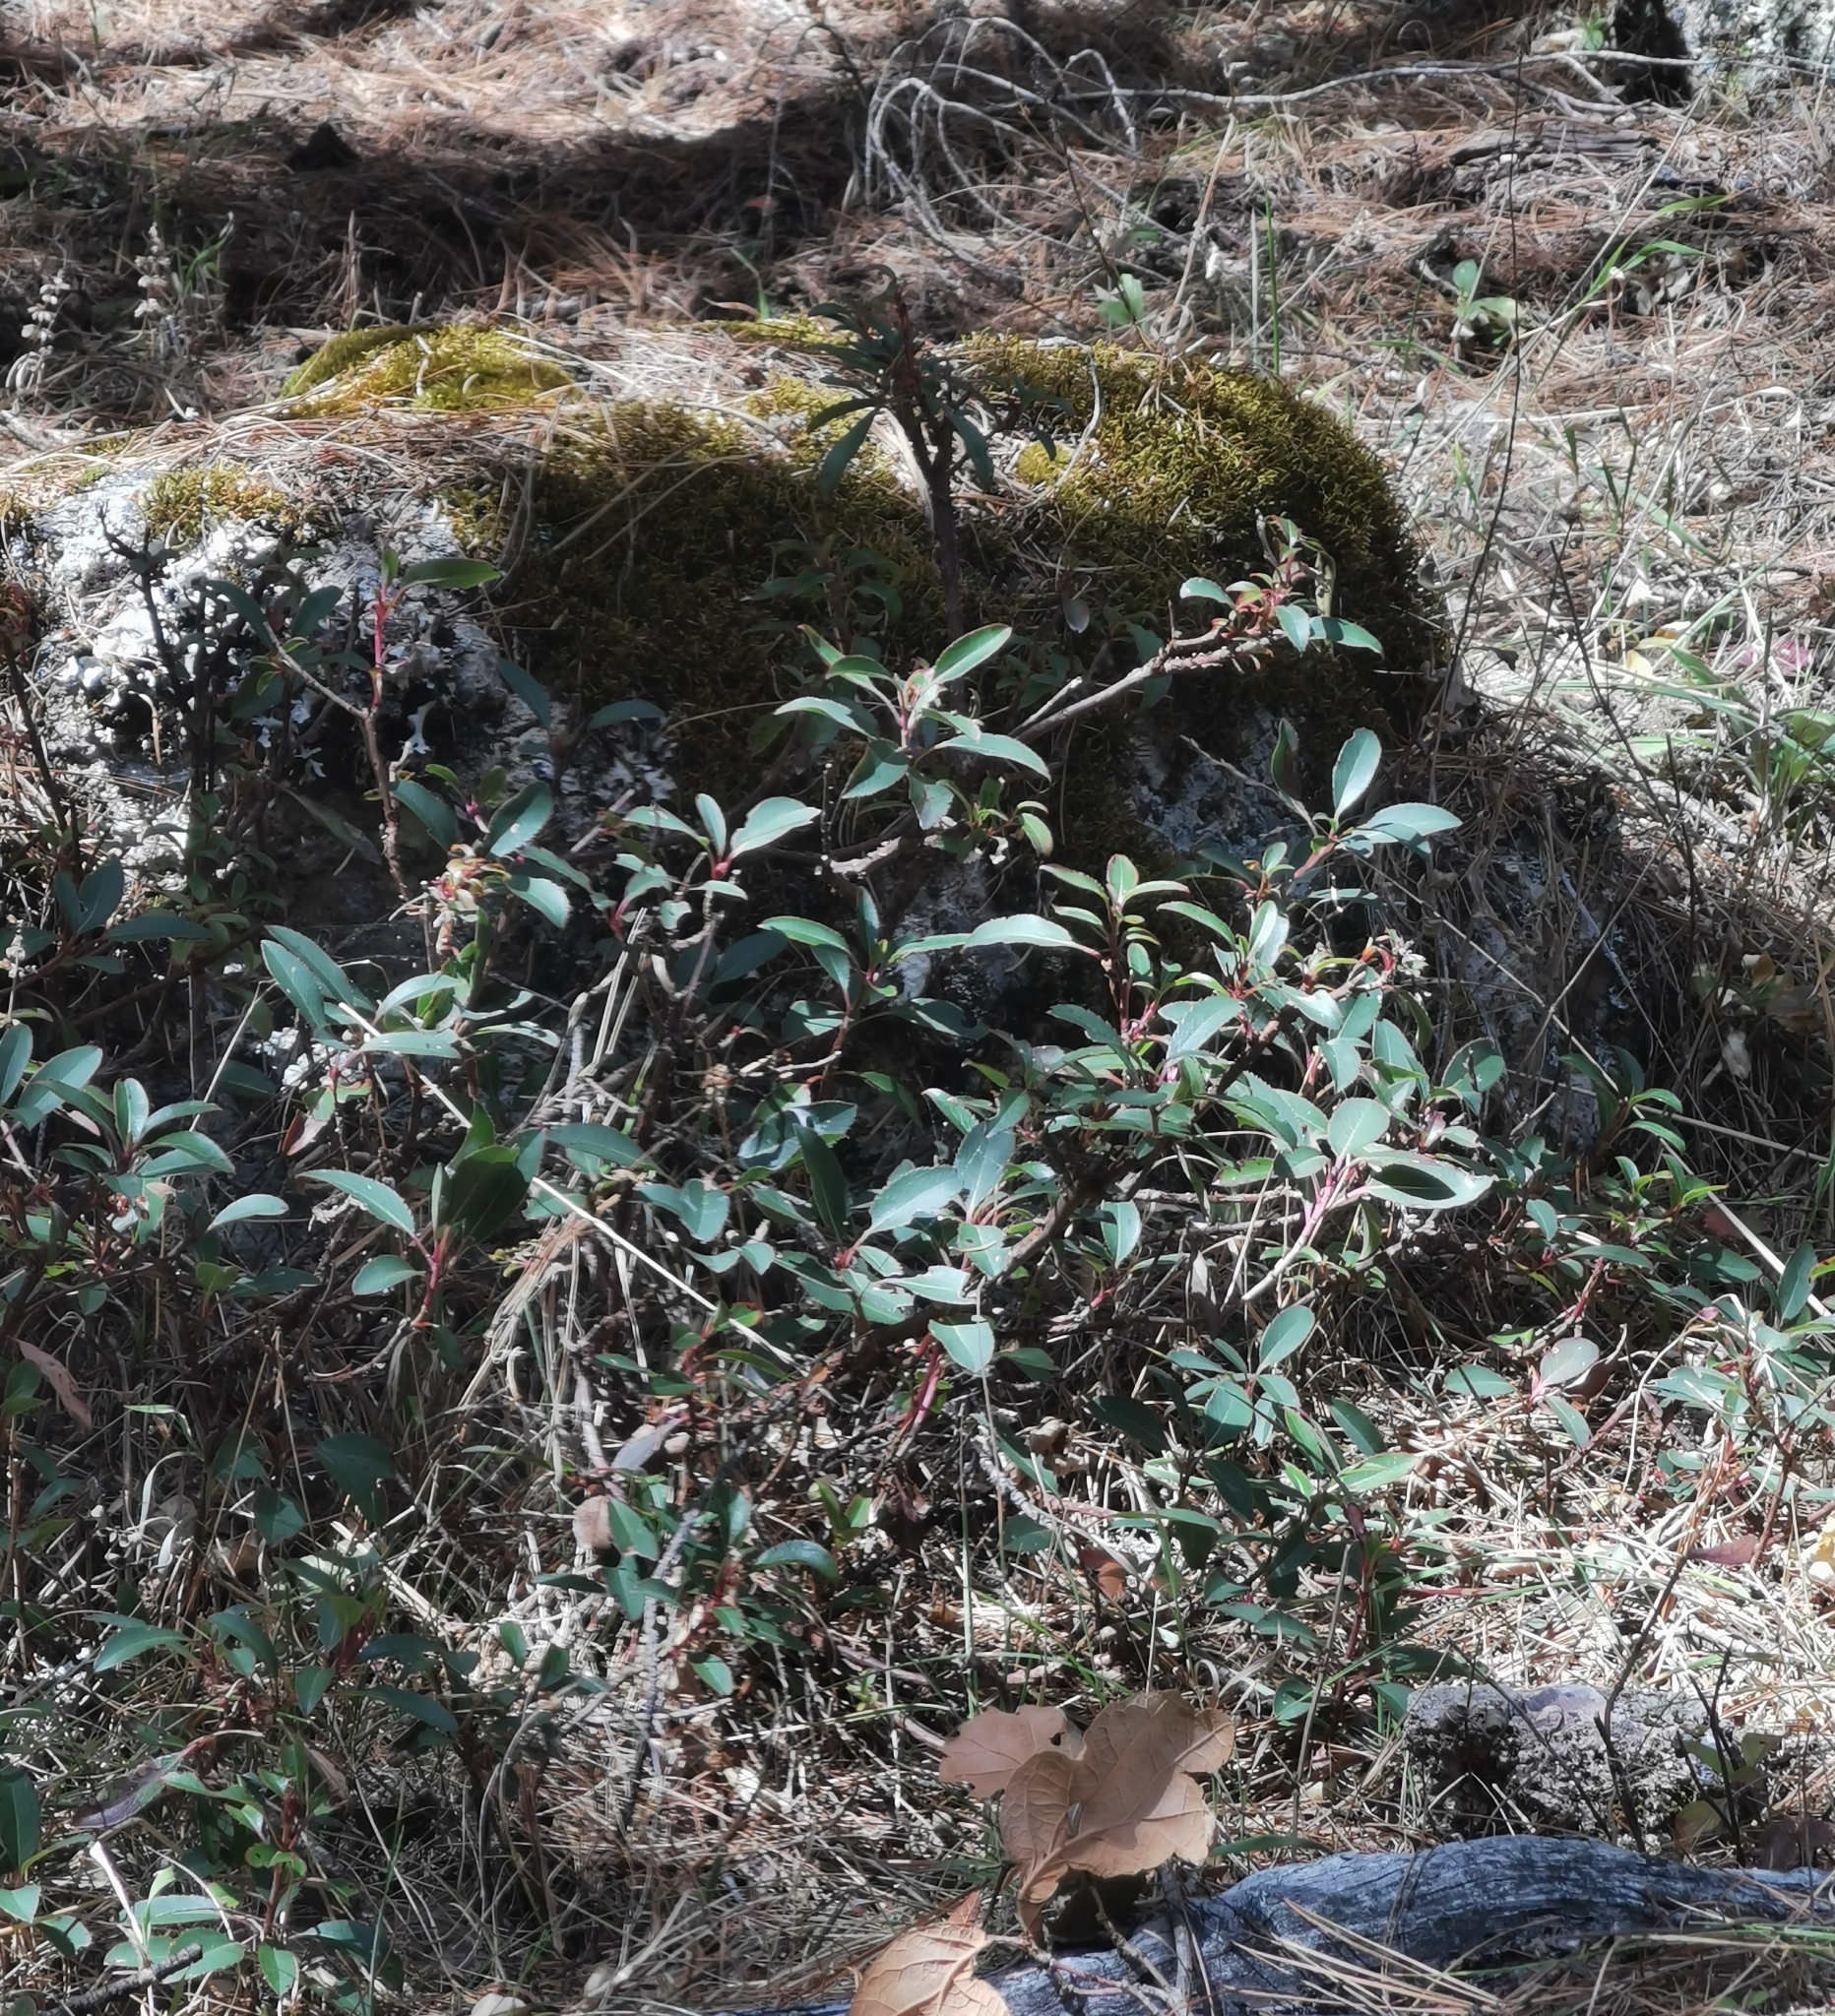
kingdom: Plantae
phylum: Tracheophyta
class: Magnoliopsida
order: Ericales
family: Ericaceae
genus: Arbutus
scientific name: Arbutus mollis
